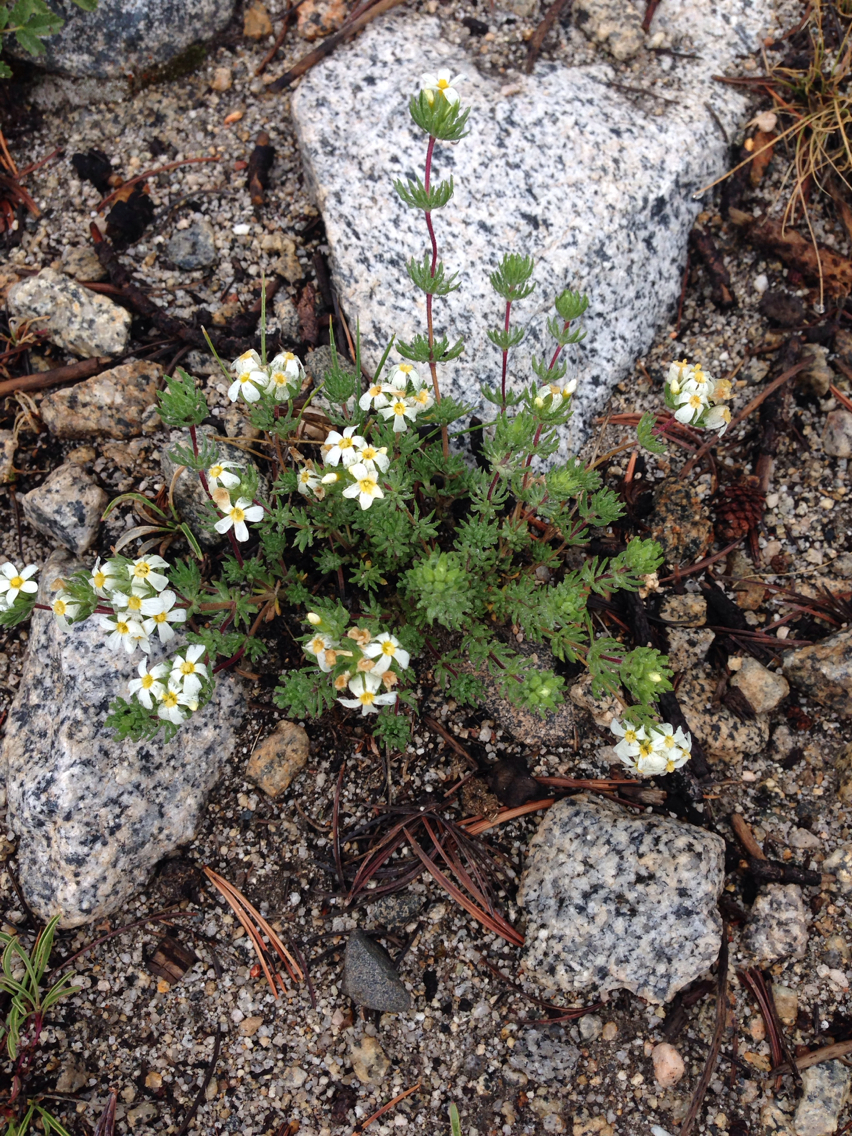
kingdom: Plantae
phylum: Tracheophyta
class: Magnoliopsida
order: Ericales
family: Polemoniaceae
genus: Leptosiphon
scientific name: Leptosiphon nuttallii
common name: Nuttall's linanthus
